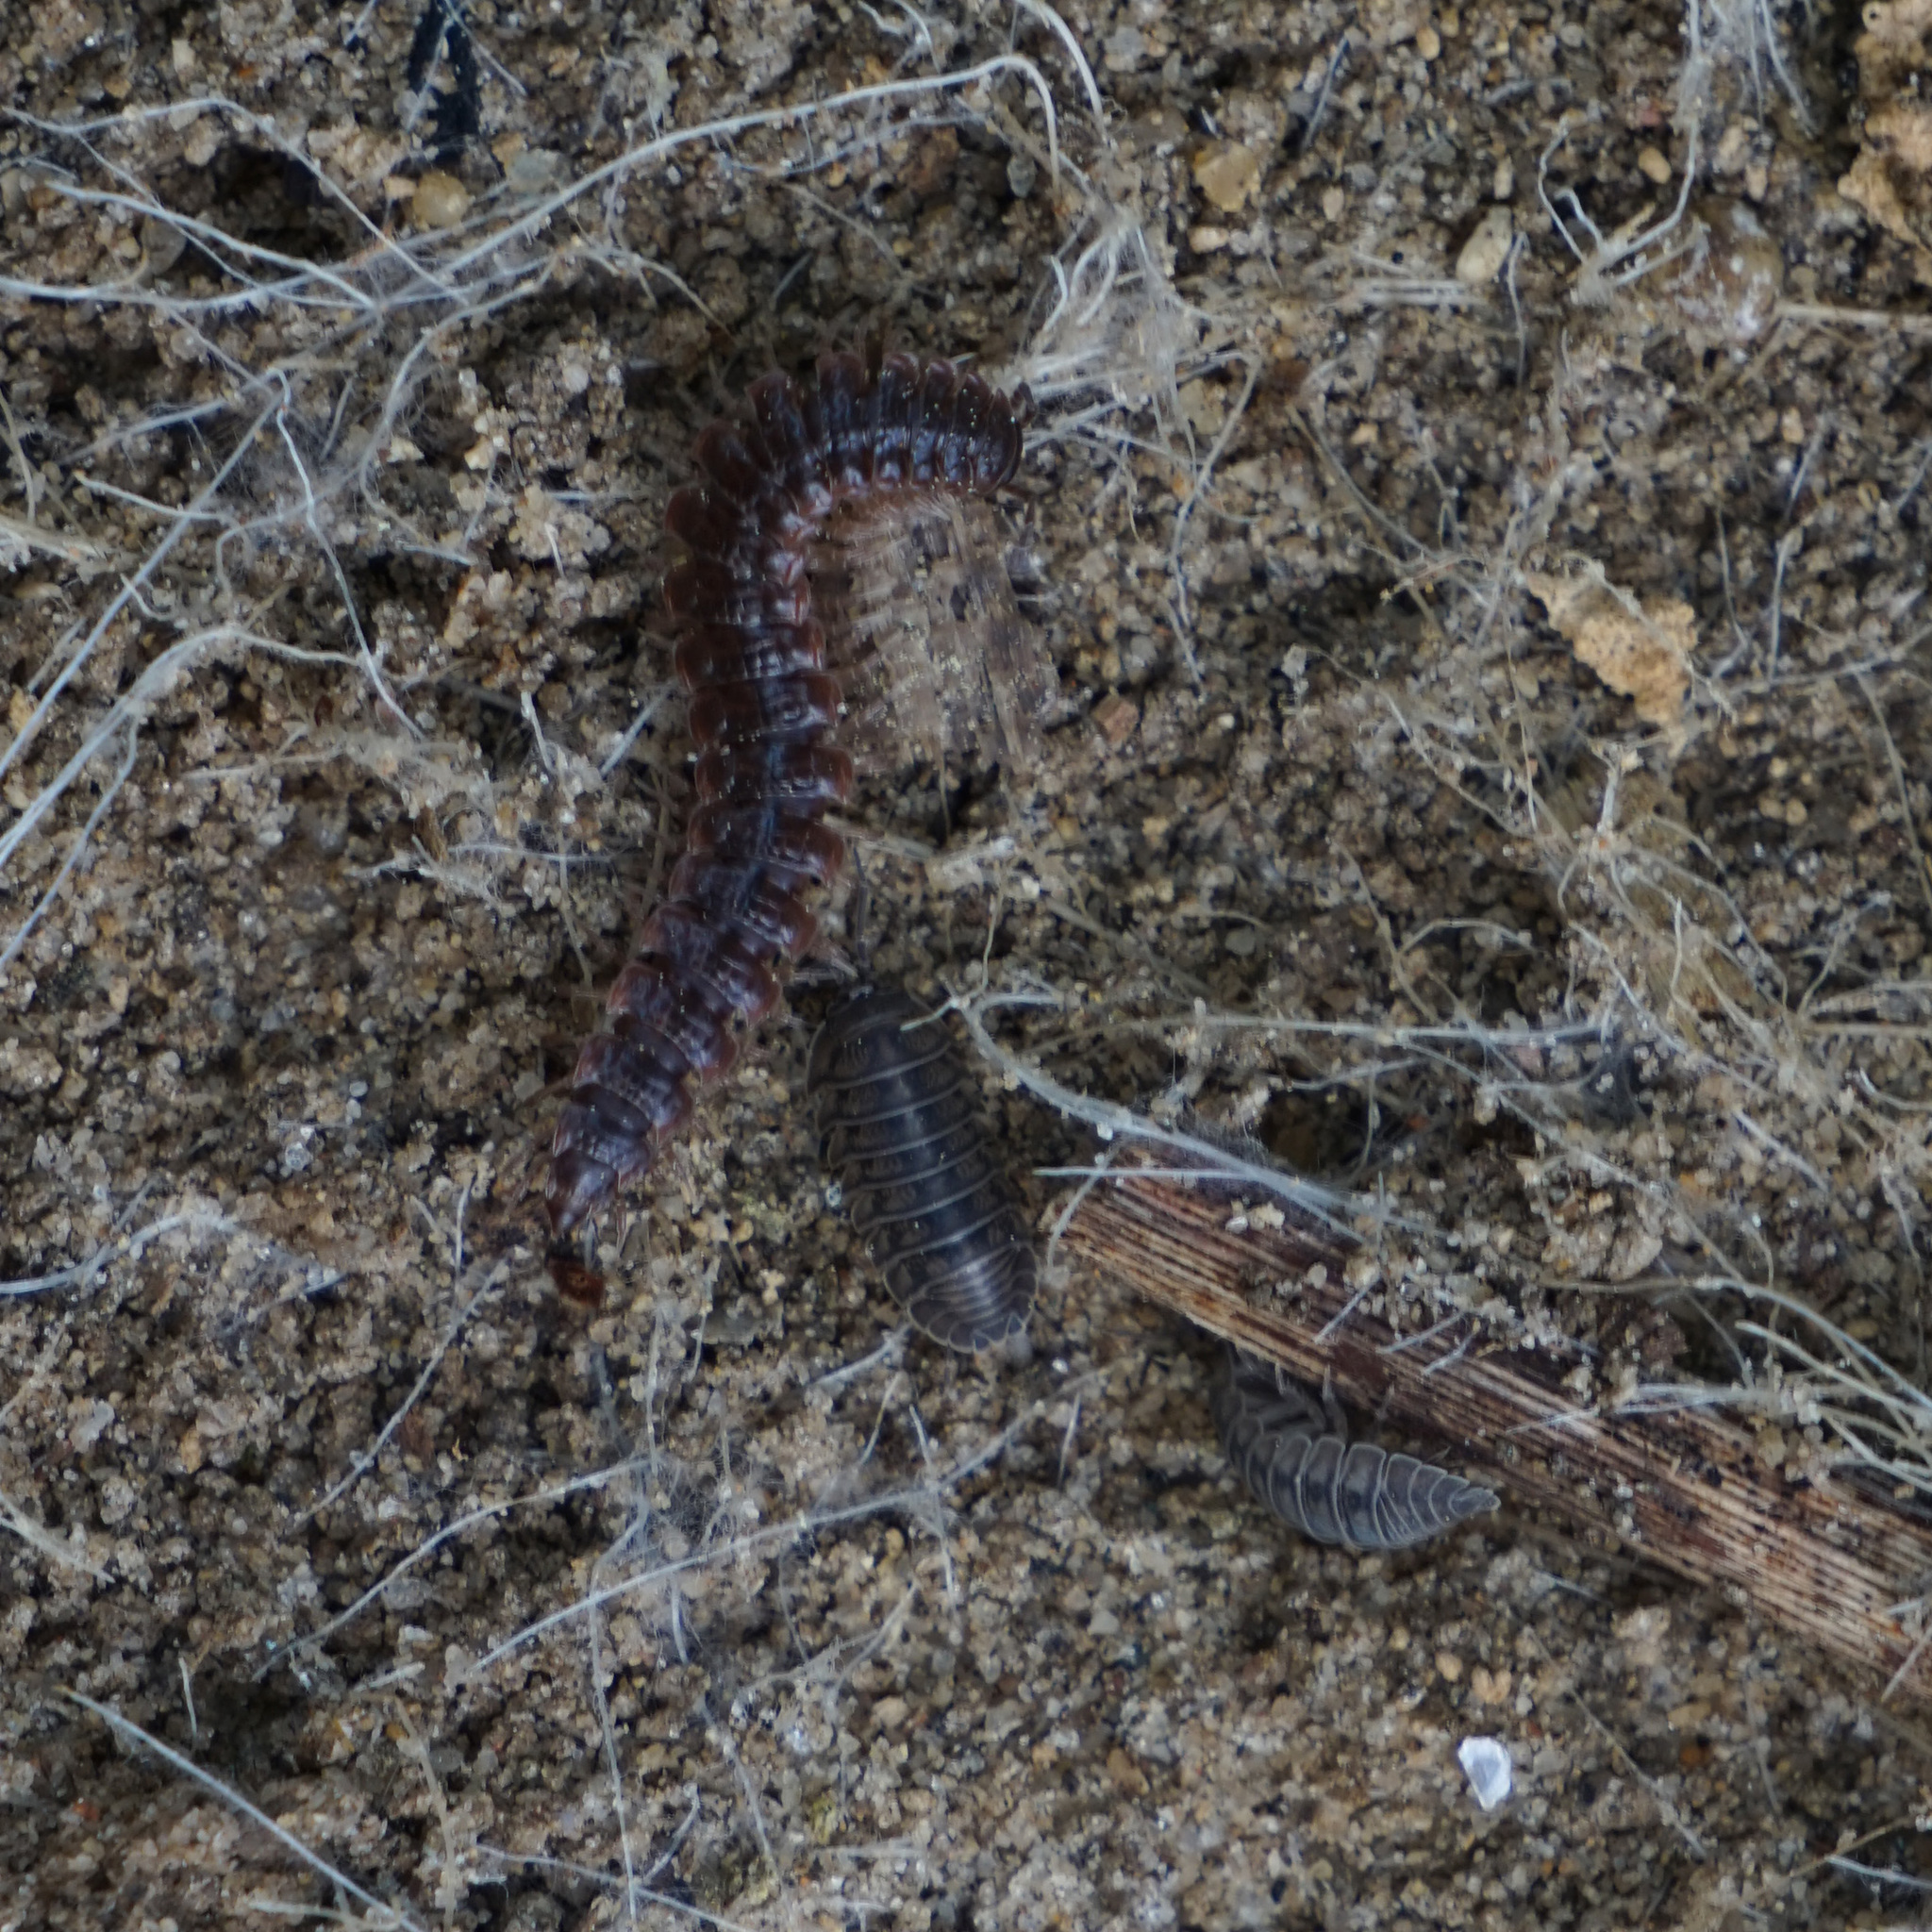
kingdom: Animalia
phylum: Arthropoda
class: Malacostraca
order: Isopoda
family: Armadillidiidae
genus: Armadillidium
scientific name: Armadillidium nasatum
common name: Isopod
